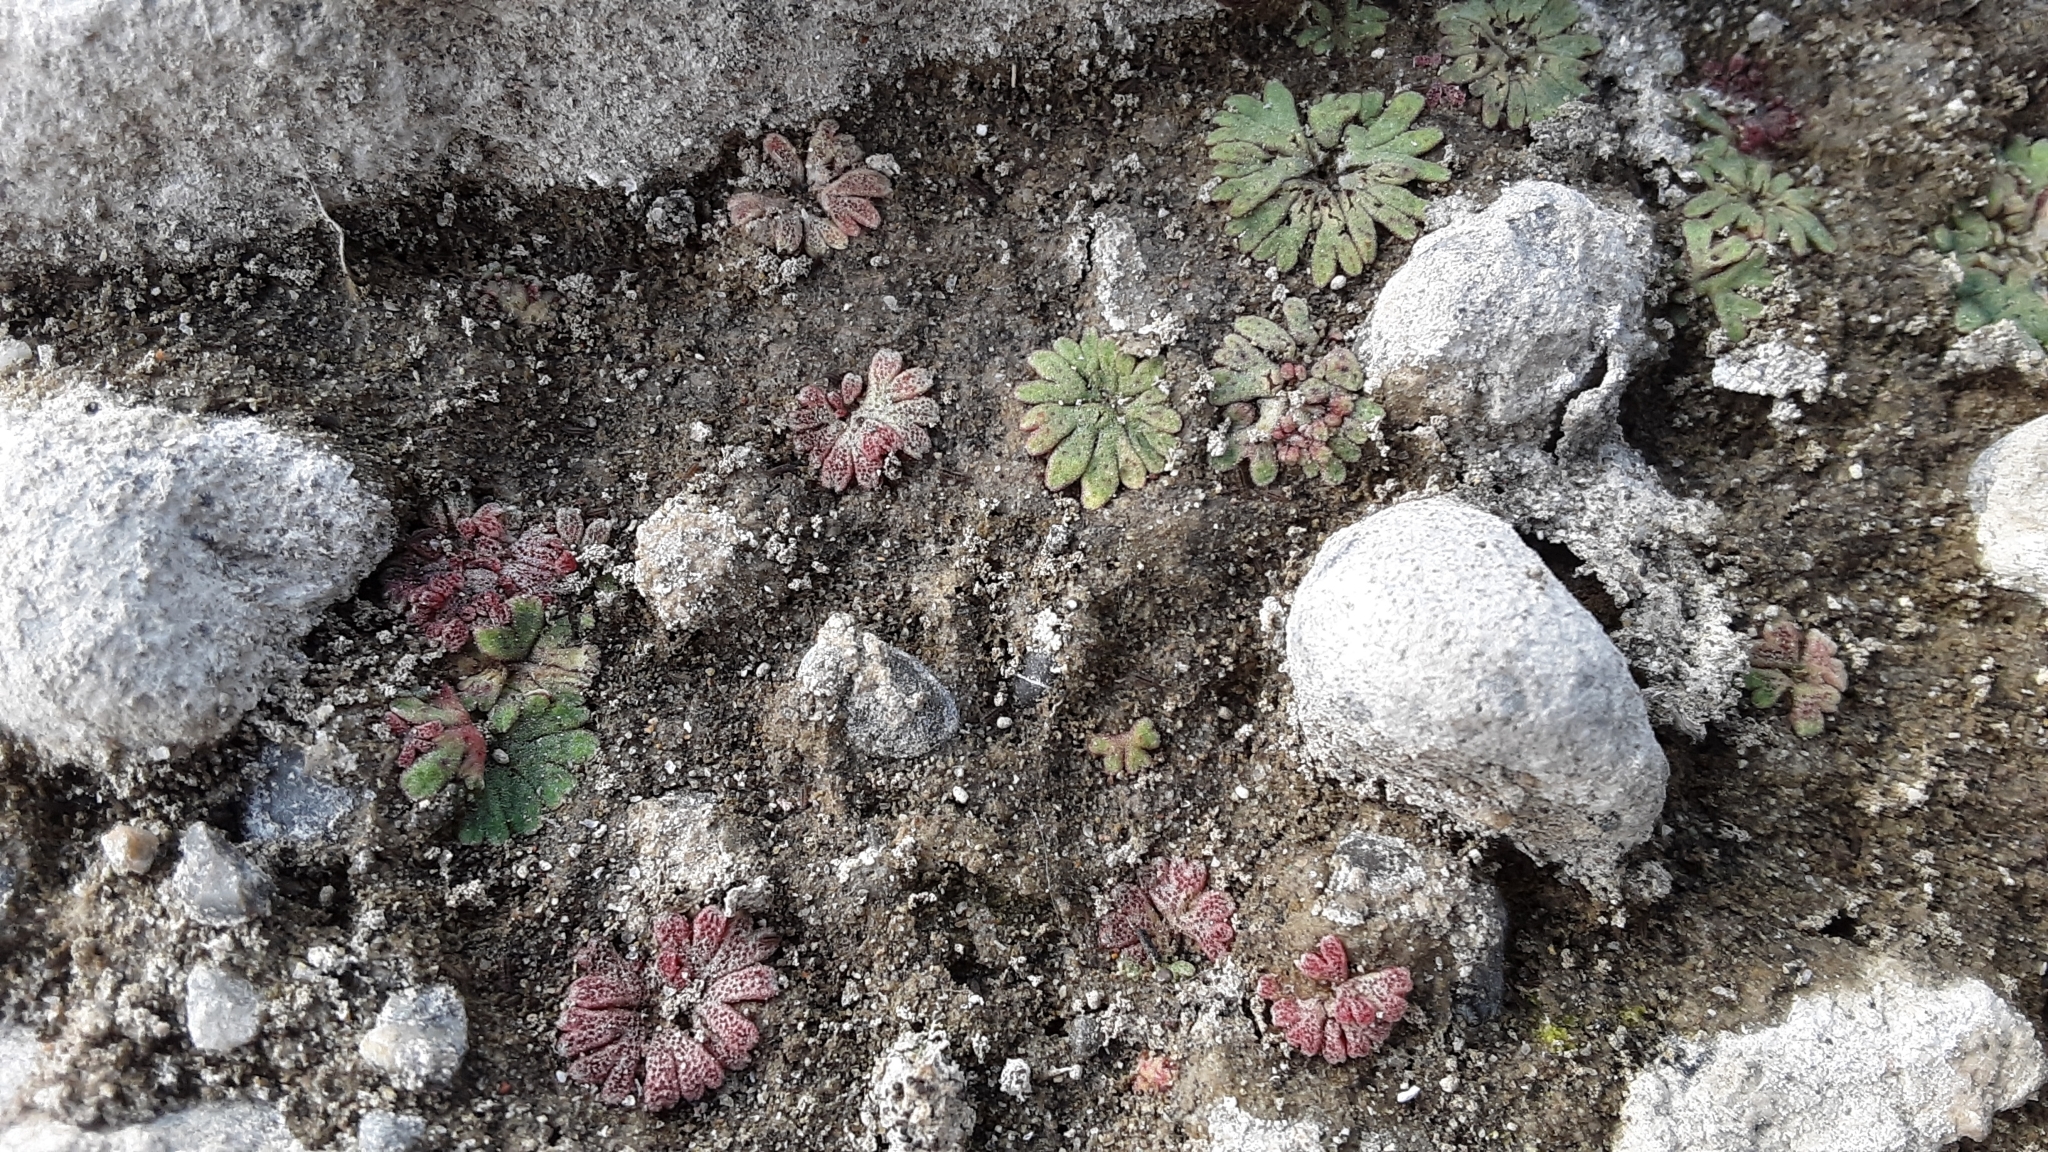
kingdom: Plantae
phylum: Marchantiophyta
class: Marchantiopsida
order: Marchantiales
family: Ricciaceae
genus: Riccia
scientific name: Riccia frostii
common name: Frost s crystalwort
